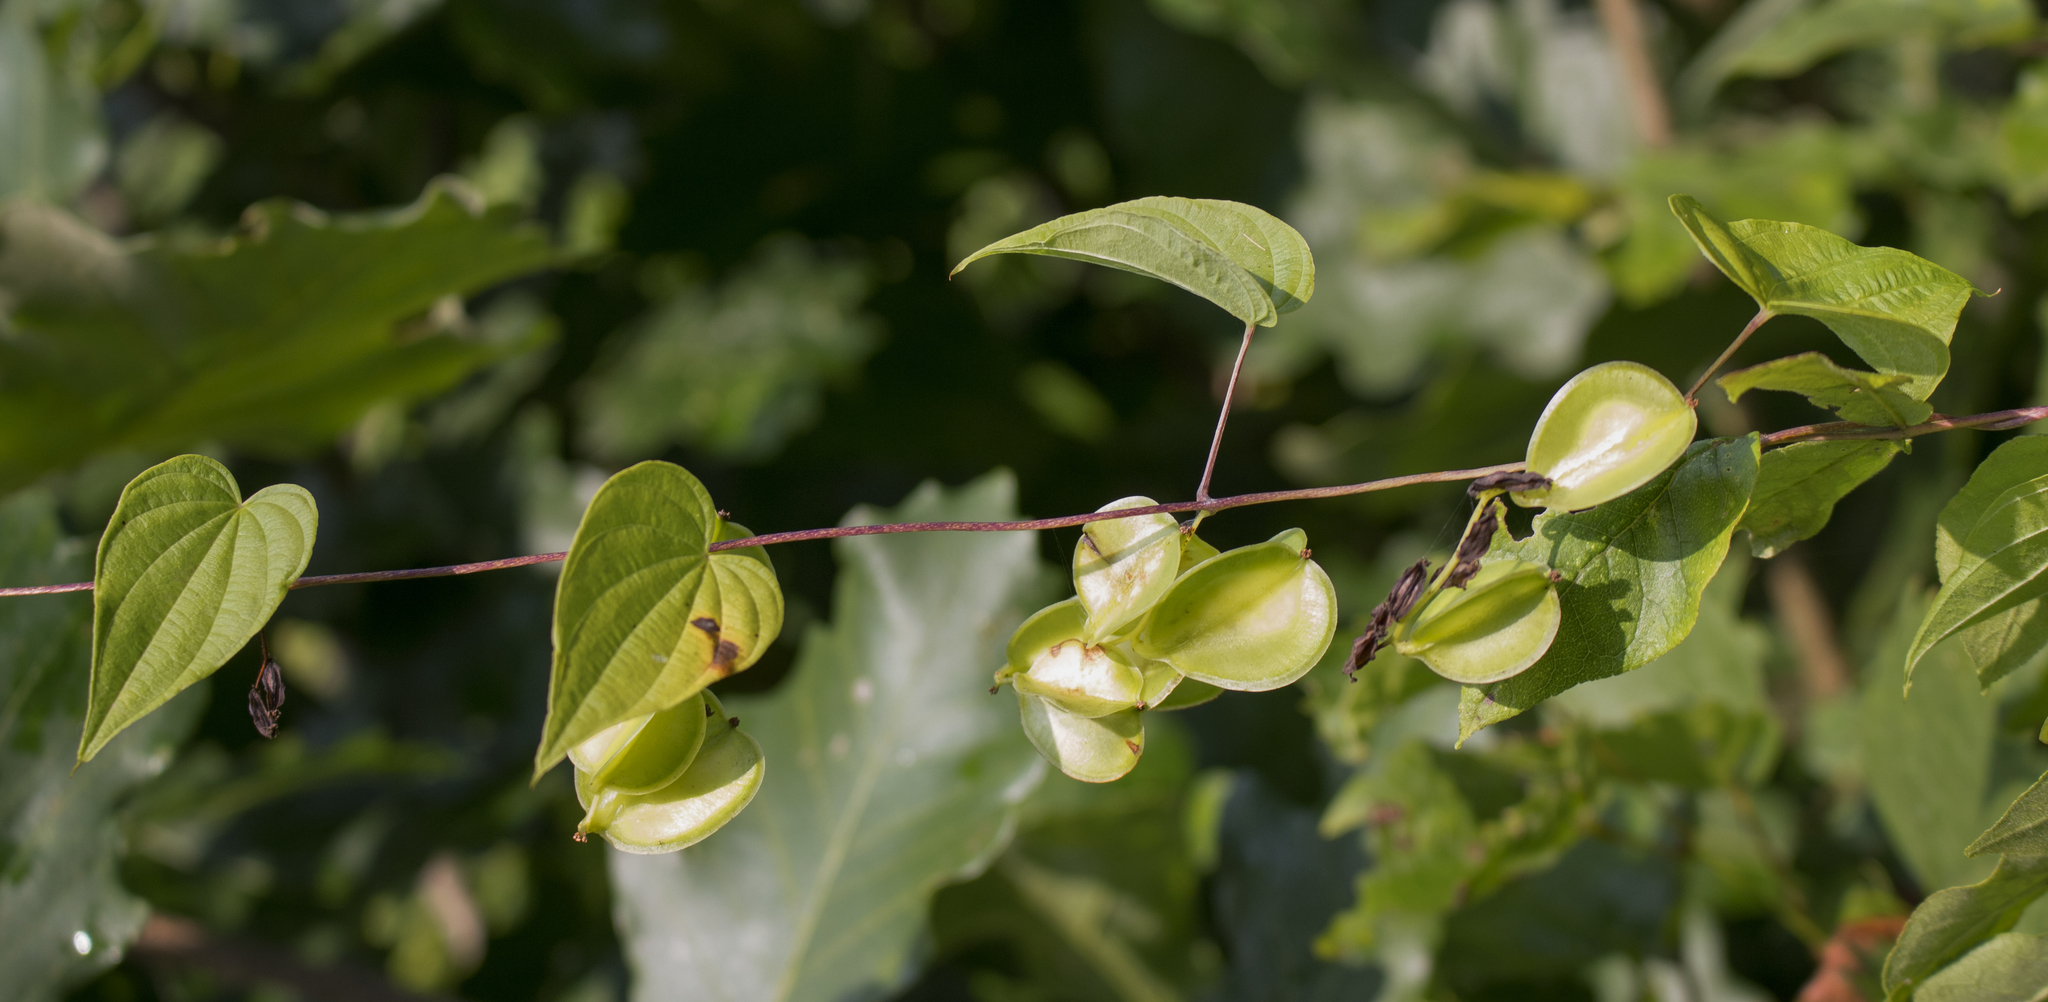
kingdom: Plantae
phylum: Tracheophyta
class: Liliopsida
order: Dioscoreales
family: Dioscoreaceae
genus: Dioscorea
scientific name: Dioscorea villosa
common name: Wild yam
